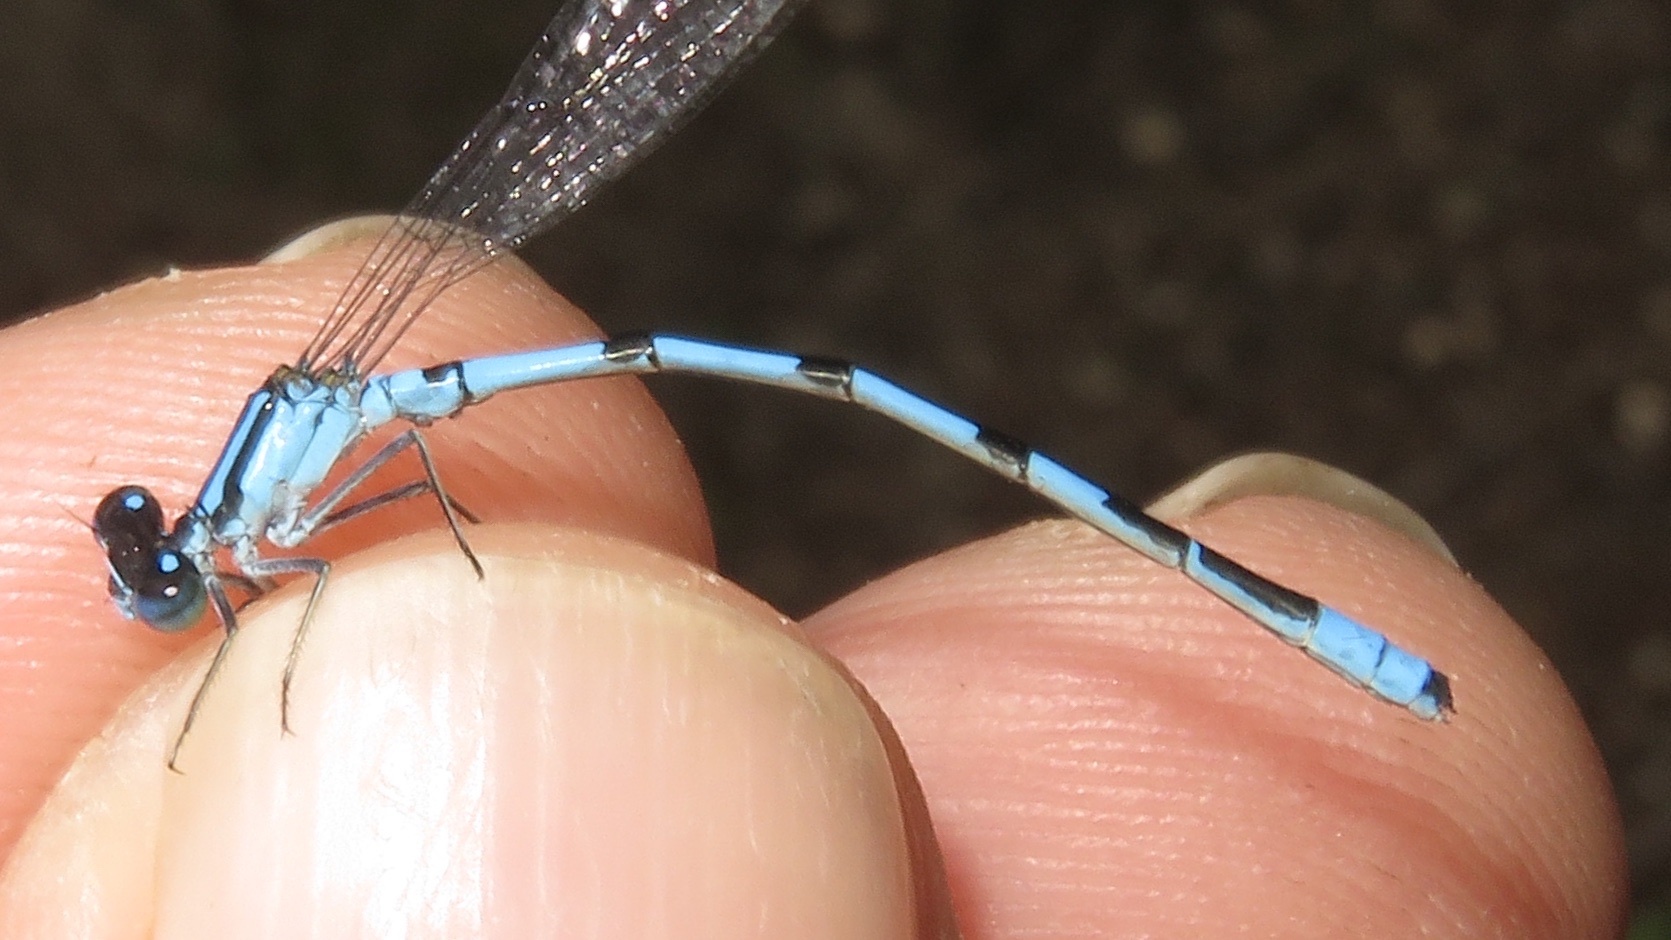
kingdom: Animalia
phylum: Arthropoda
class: Insecta
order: Odonata
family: Coenagrionidae
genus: Enallagma
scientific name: Enallagma hageni
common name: Hagen's bluet
